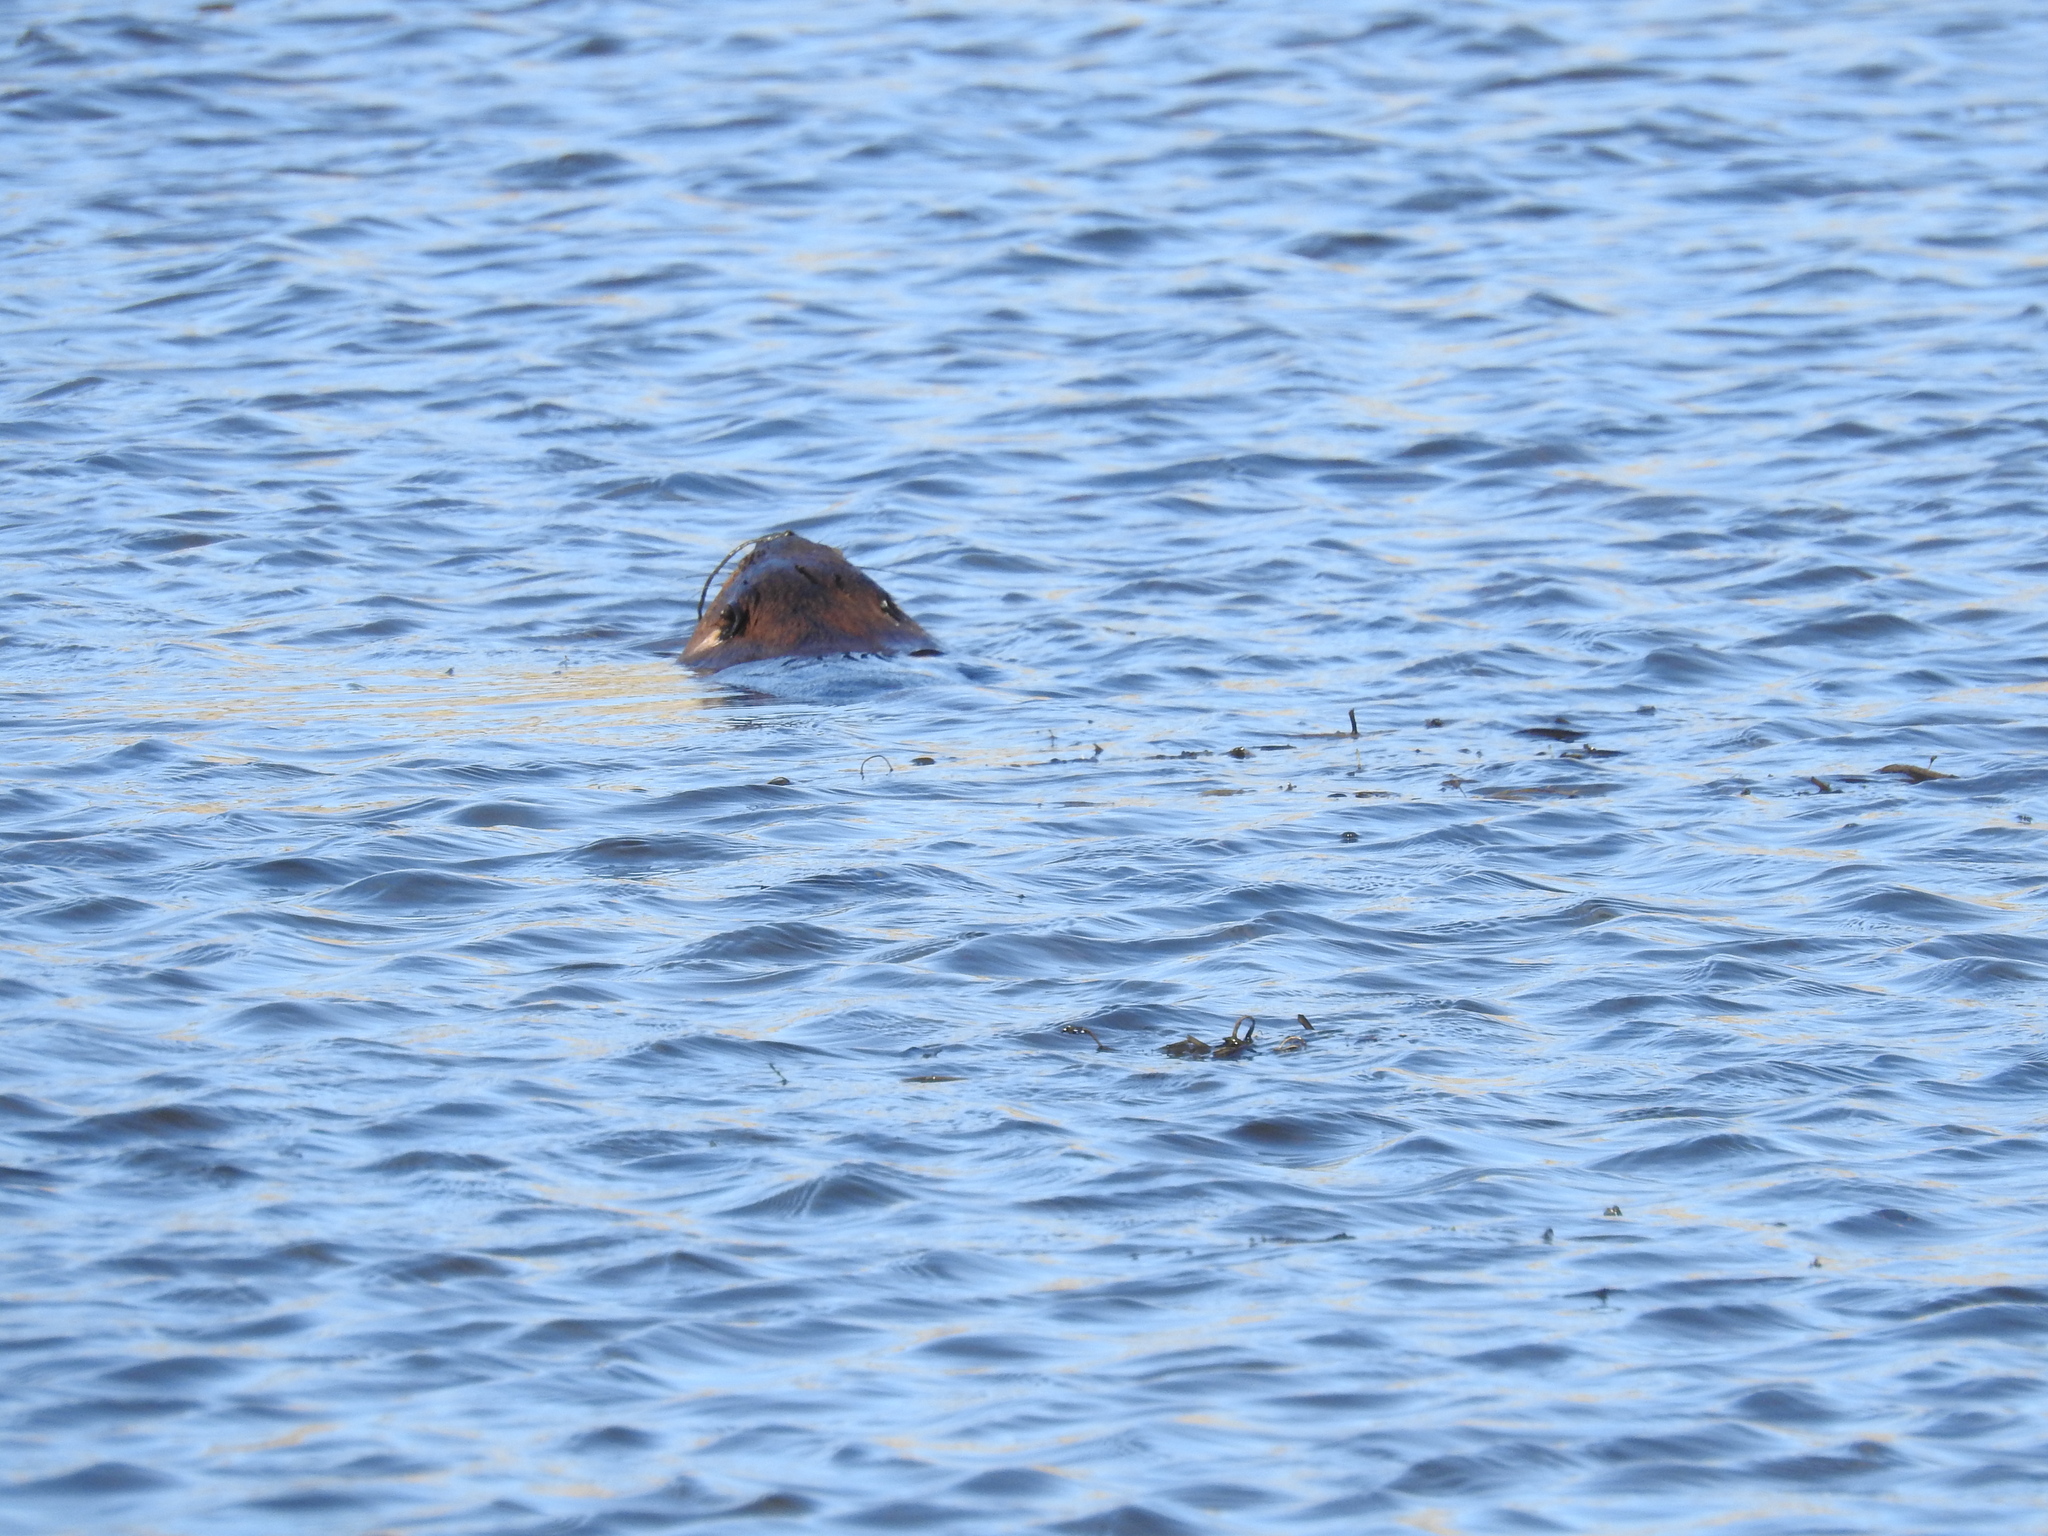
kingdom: Animalia
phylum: Chordata
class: Mammalia
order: Rodentia
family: Castoridae
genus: Castor
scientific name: Castor canadensis
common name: American beaver
